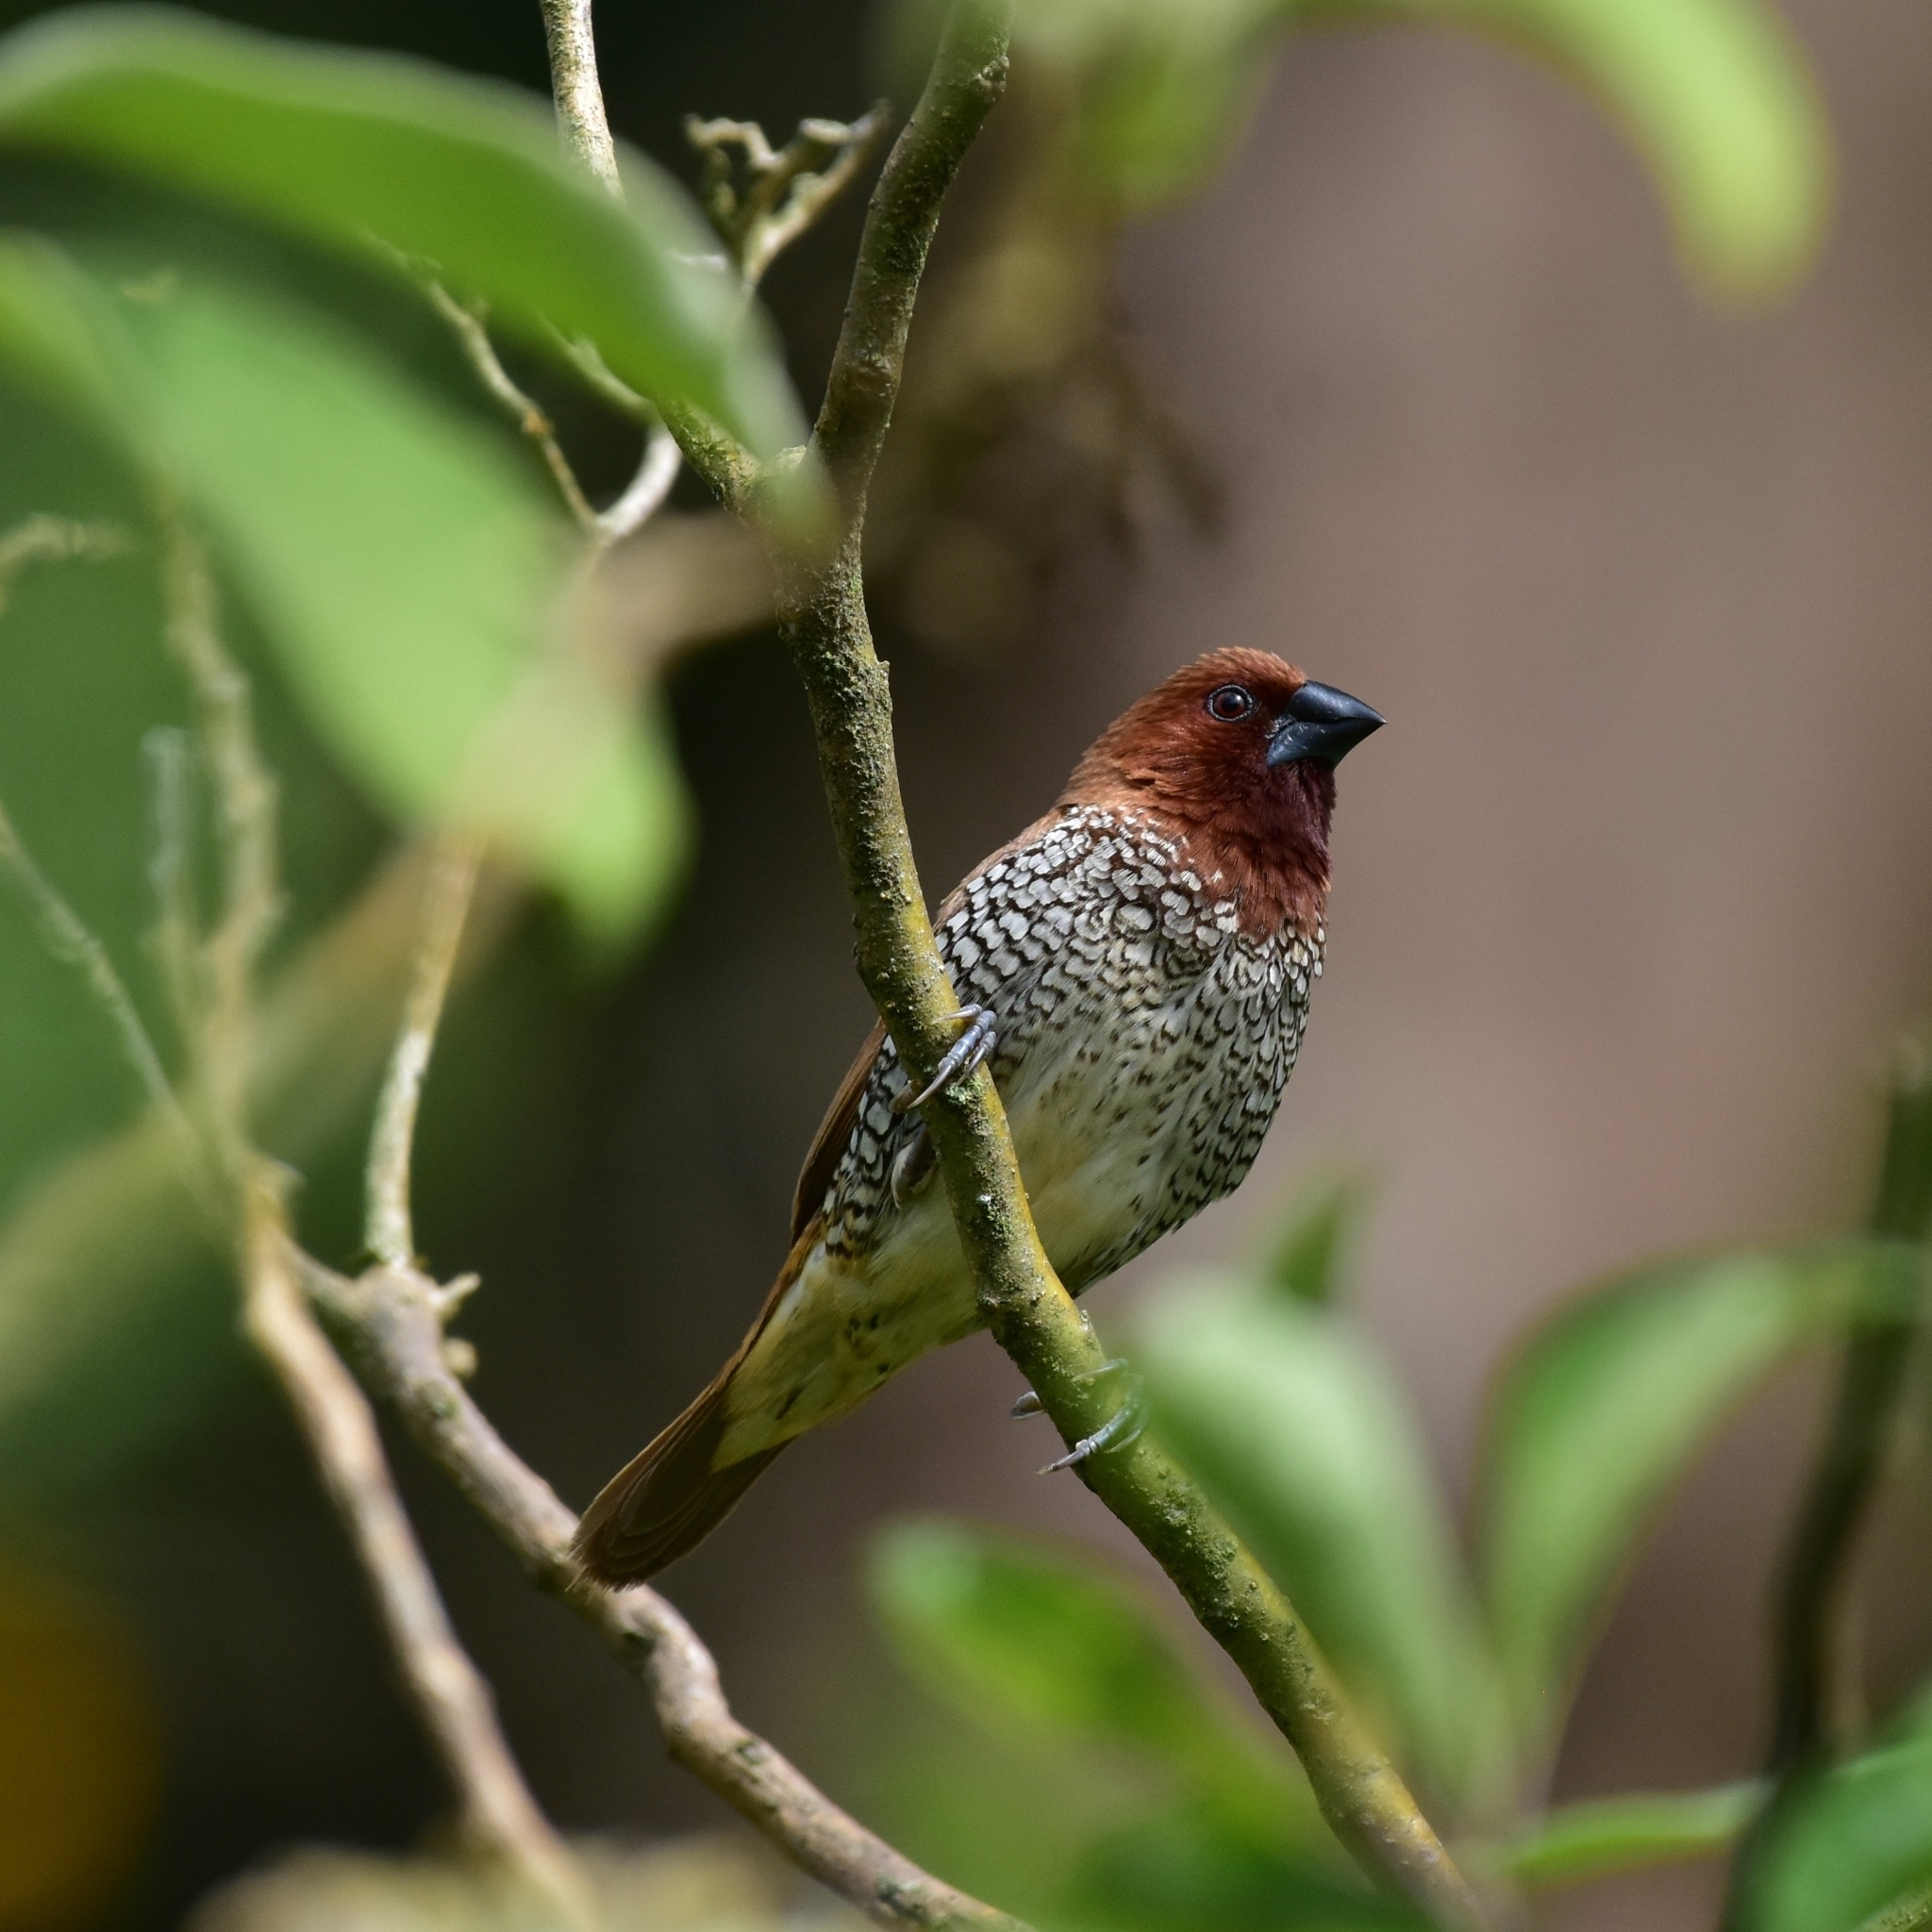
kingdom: Animalia
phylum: Chordata
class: Aves
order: Passeriformes
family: Estrildidae
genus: Lonchura
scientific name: Lonchura punctulata
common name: Scaly-breasted munia
